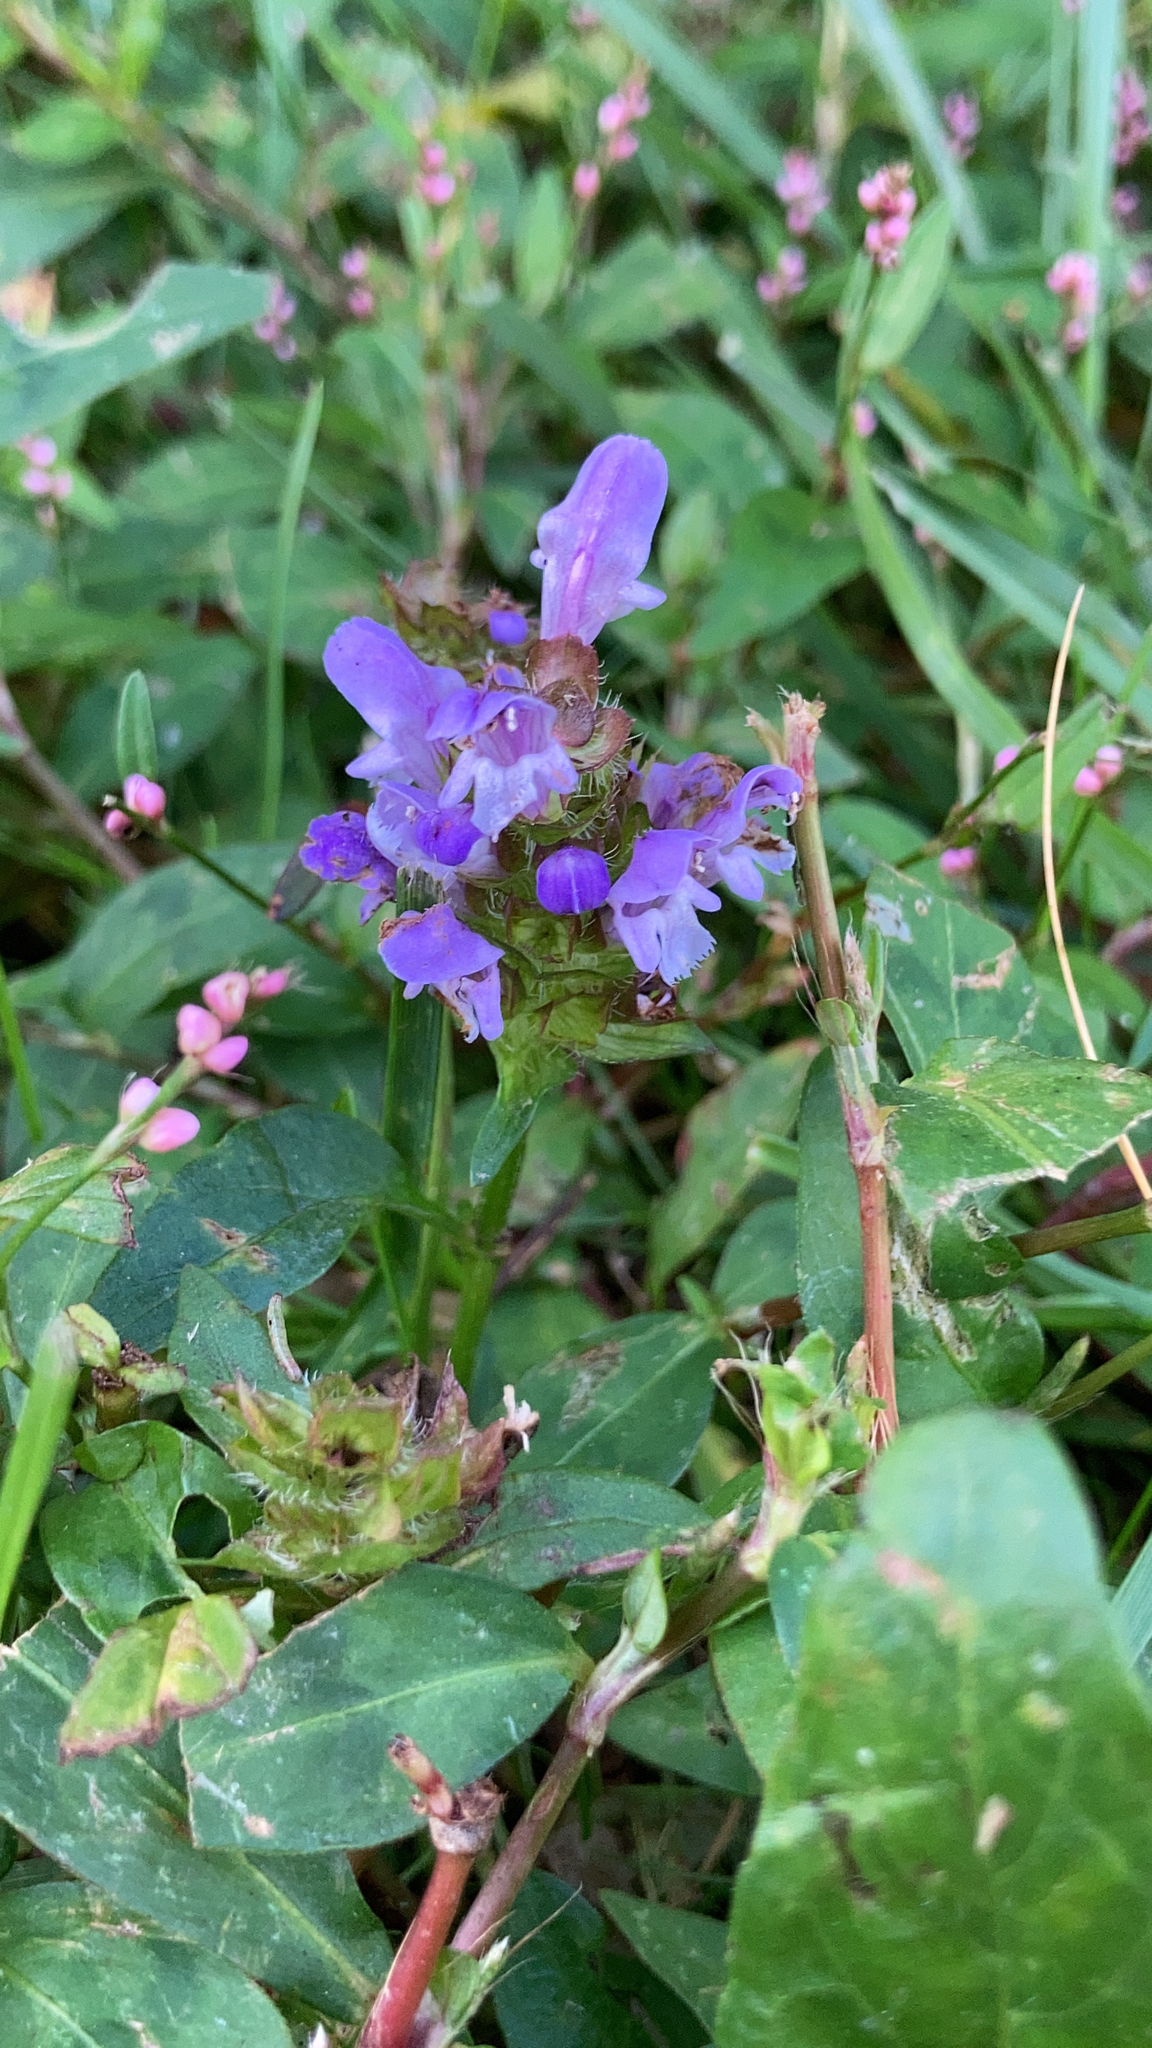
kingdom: Plantae
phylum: Tracheophyta
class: Magnoliopsida
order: Lamiales
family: Lamiaceae
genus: Prunella
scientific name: Prunella vulgaris
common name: Heal-all
